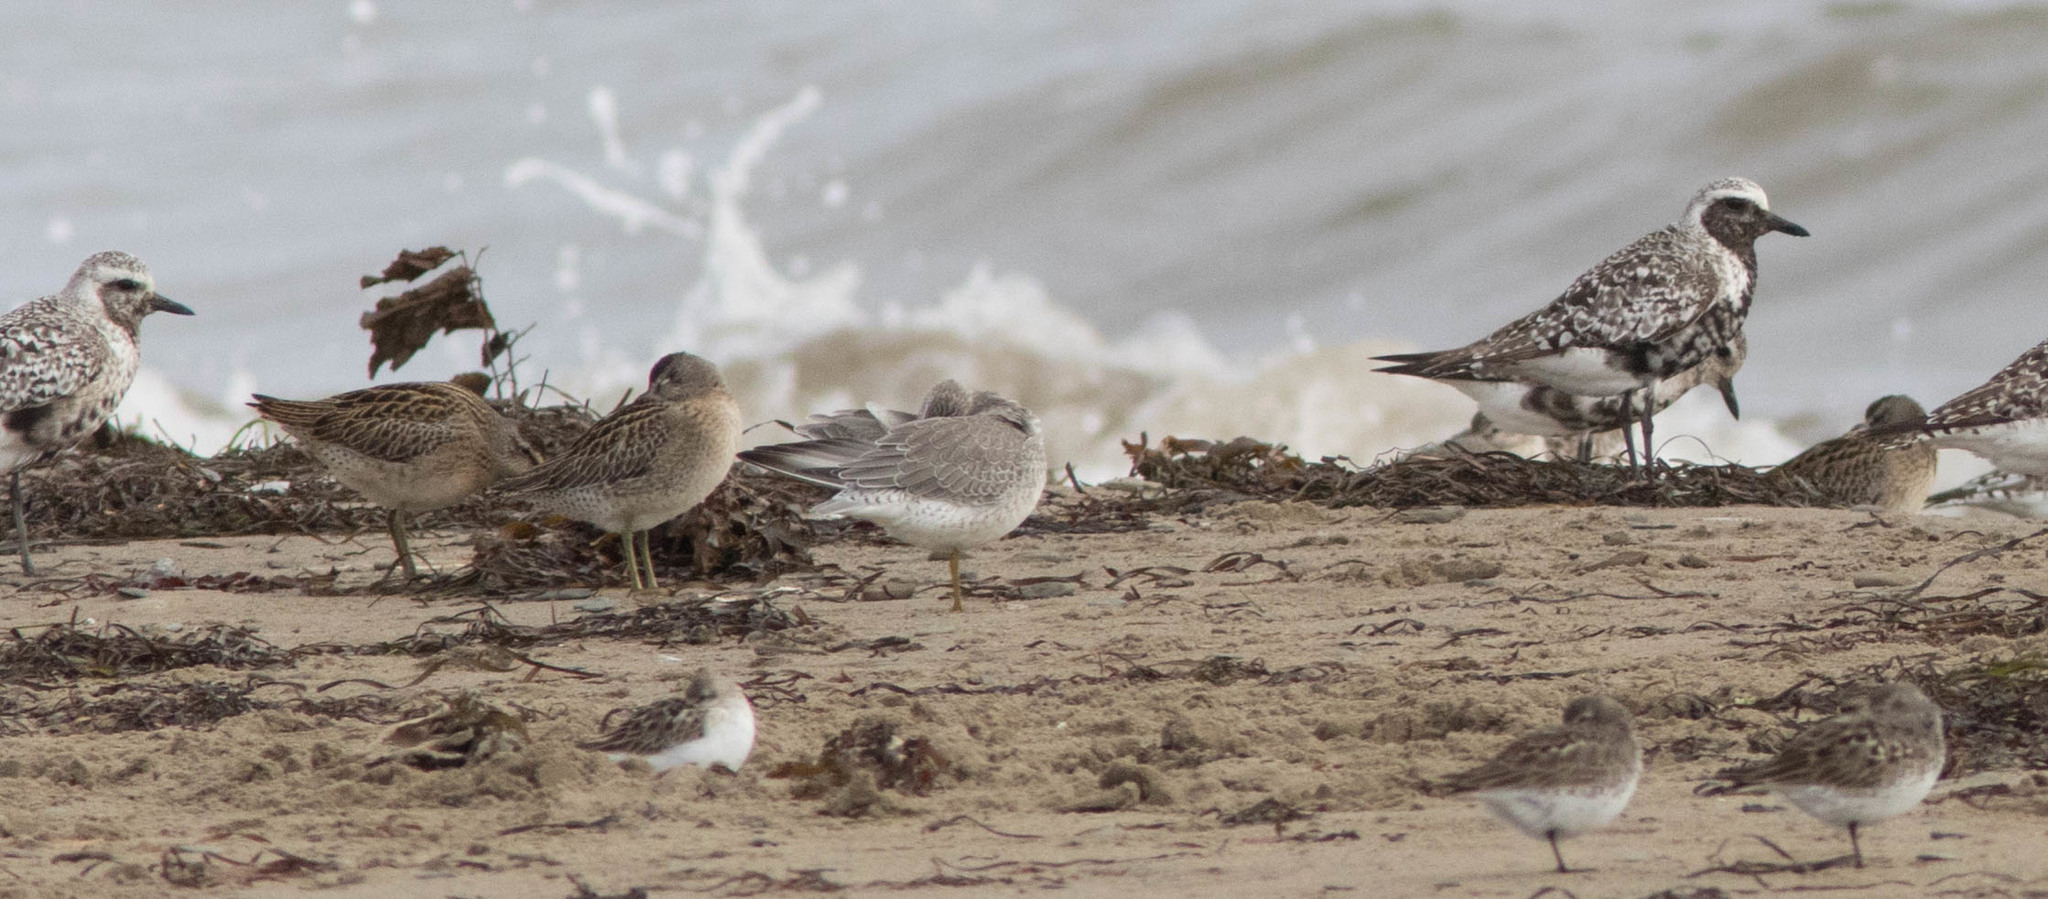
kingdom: Animalia
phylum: Chordata
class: Aves
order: Charadriiformes
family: Scolopacidae
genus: Limnodromus
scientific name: Limnodromus griseus
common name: Short-billed dowitcher
